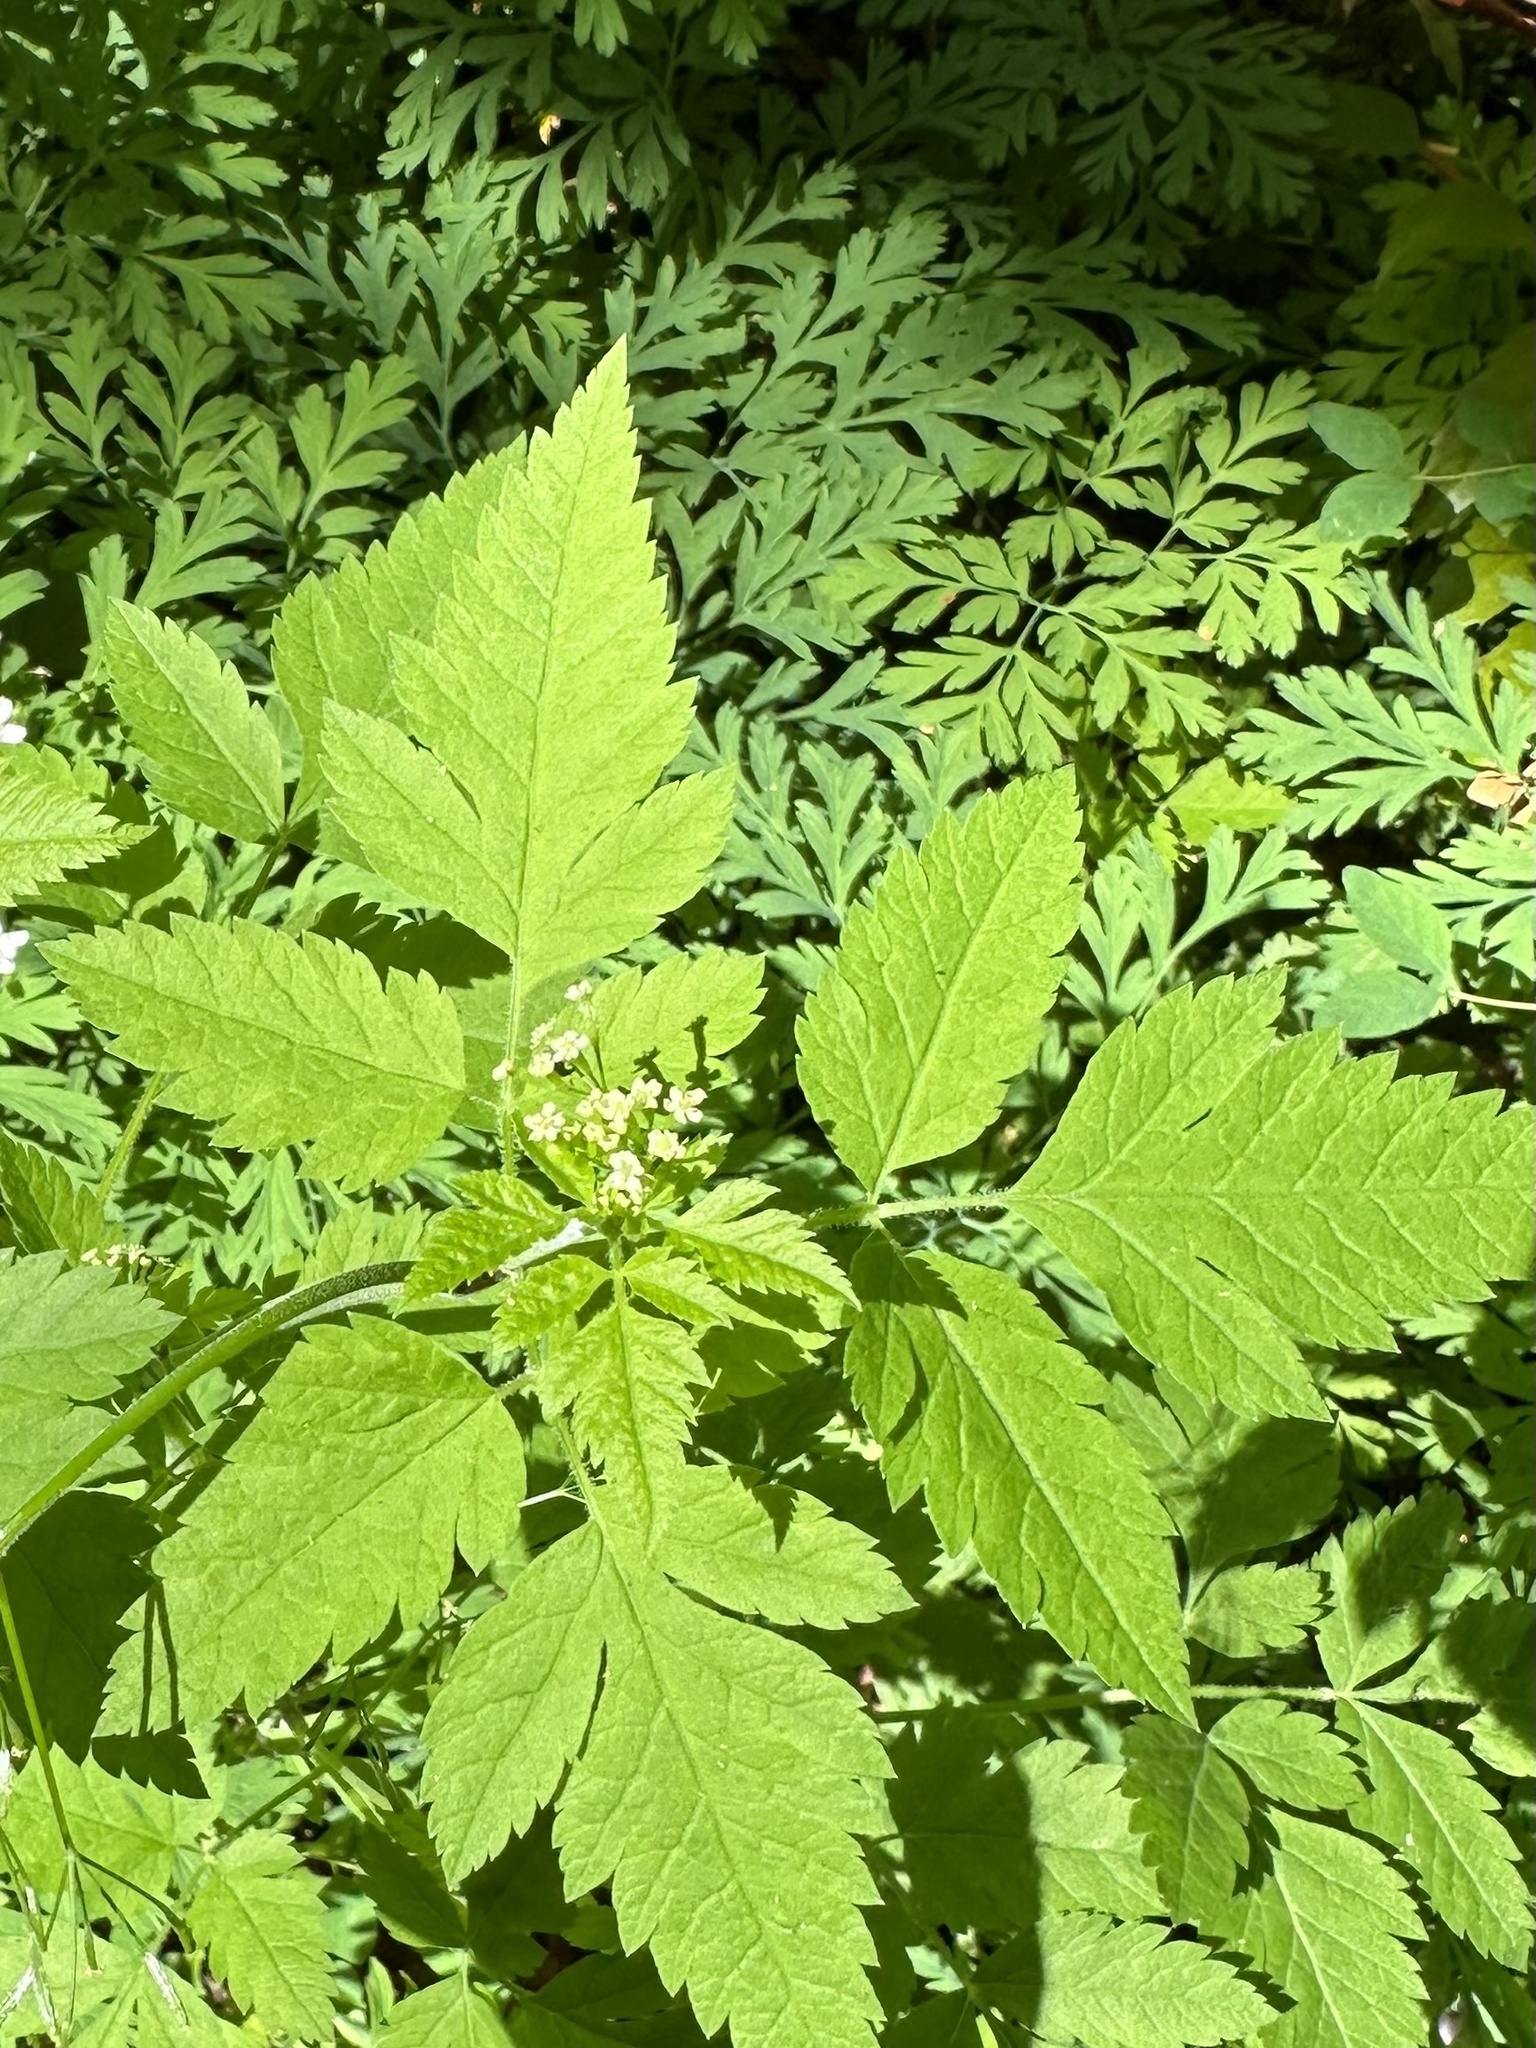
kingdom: Plantae
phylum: Tracheophyta
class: Magnoliopsida
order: Apiales
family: Apiaceae
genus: Osmorhiza
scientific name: Osmorhiza berteroi
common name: Mountain sweet cicely
